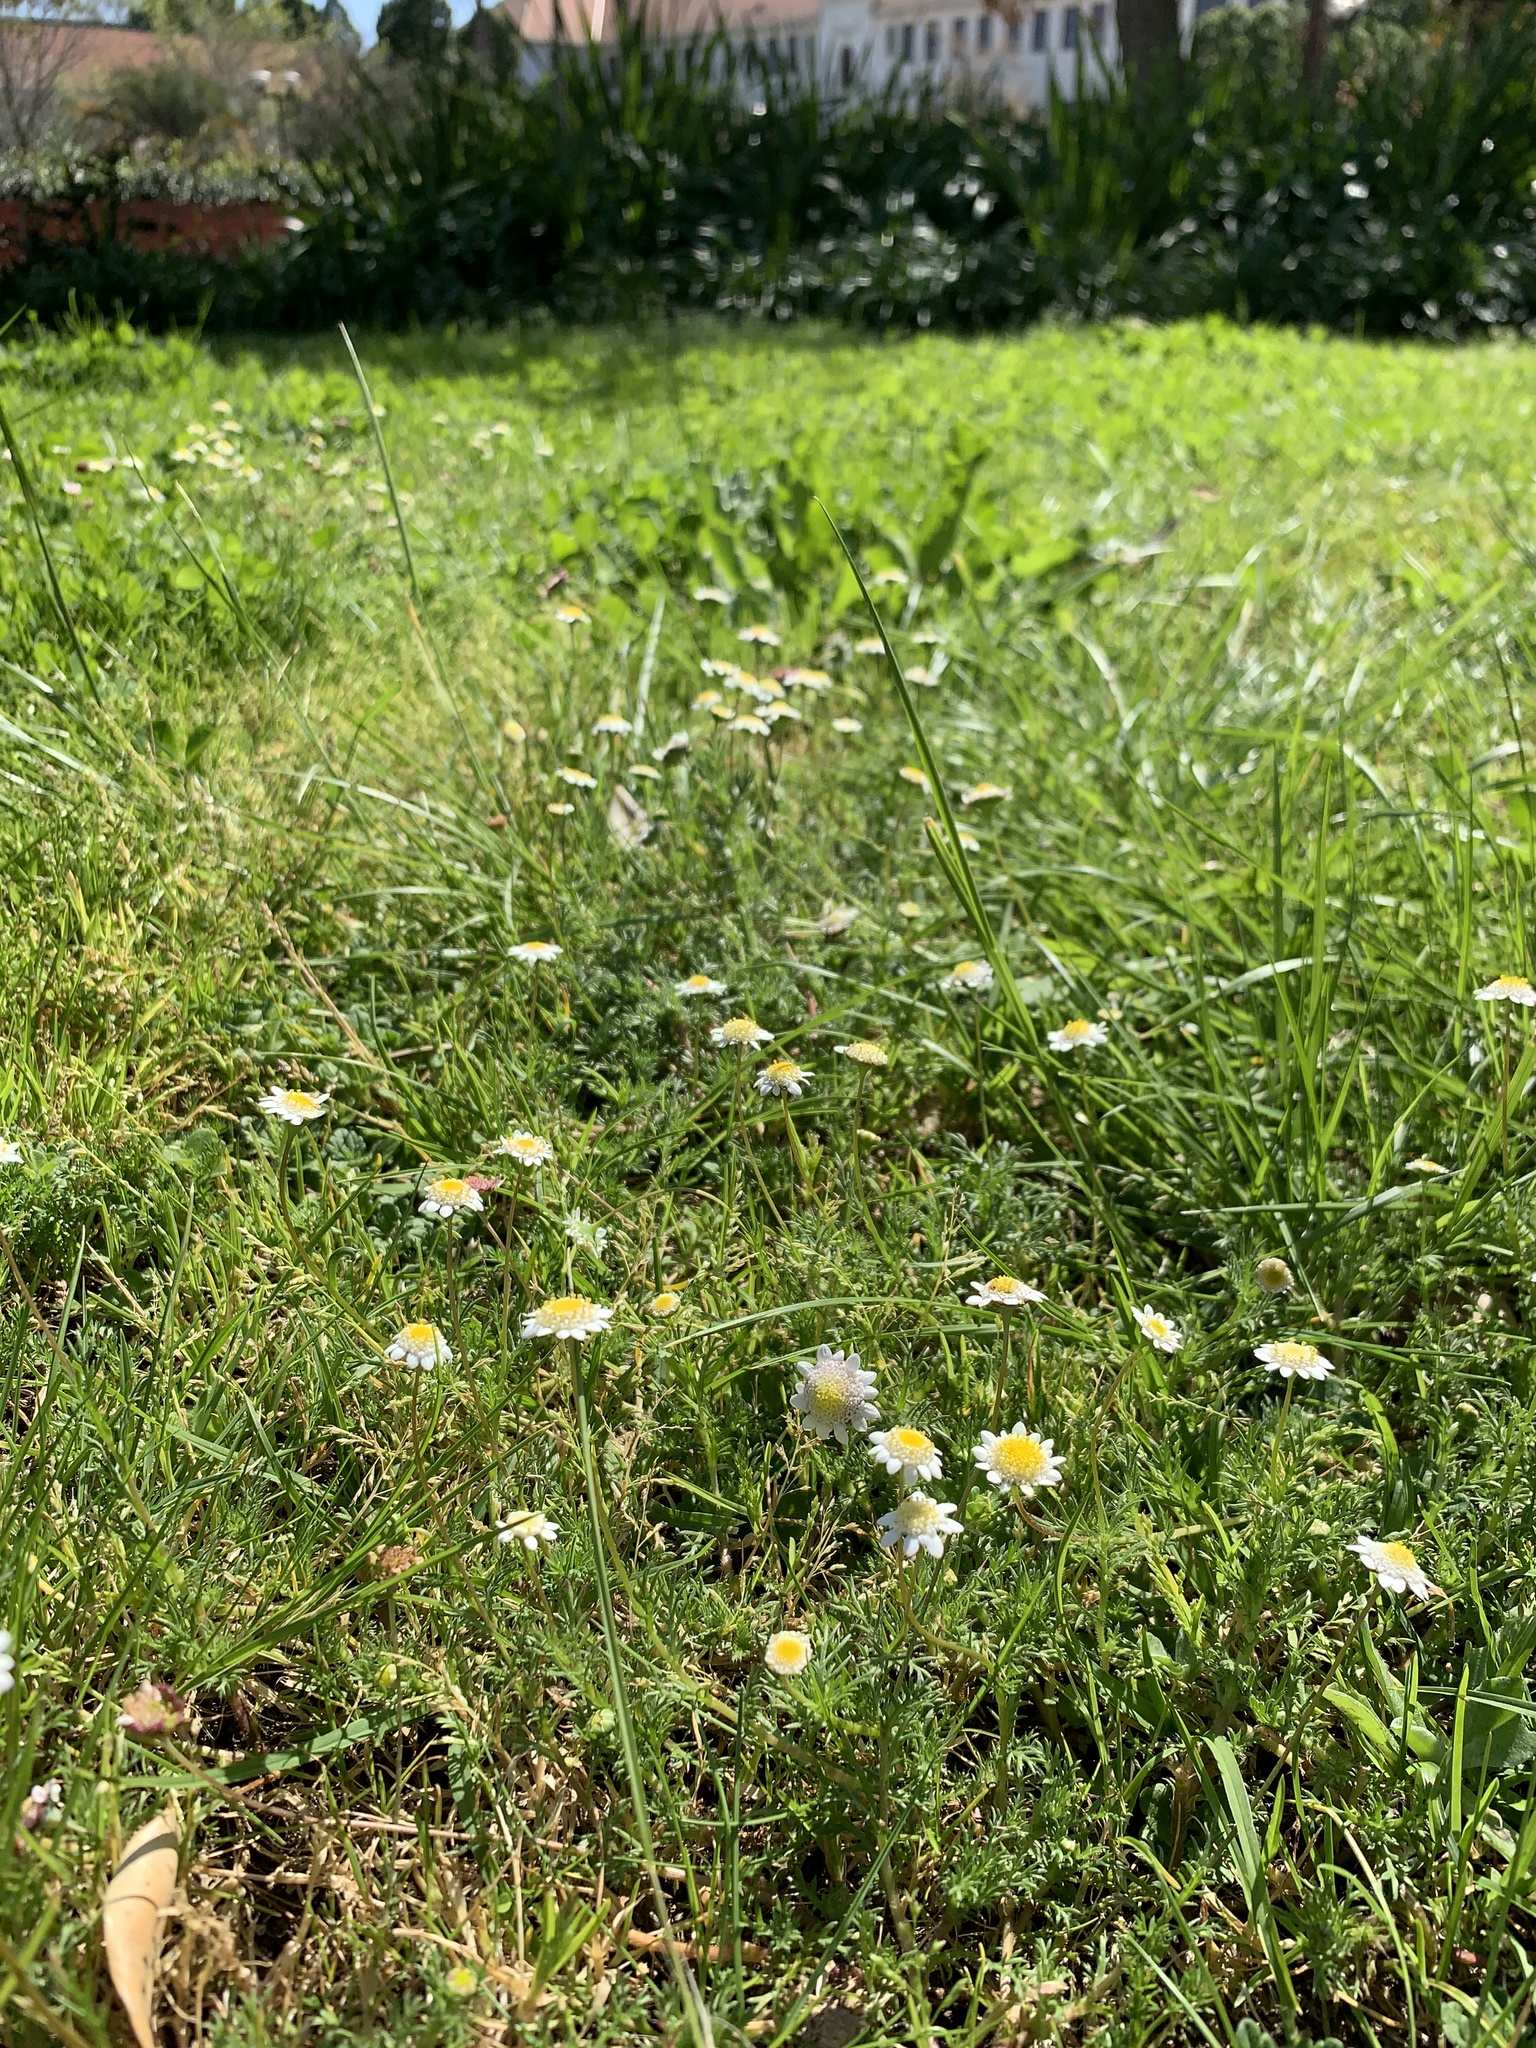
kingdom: Plantae
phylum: Tracheophyta
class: Magnoliopsida
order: Asterales
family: Asteraceae
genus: Cotula
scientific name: Cotula turbinata
